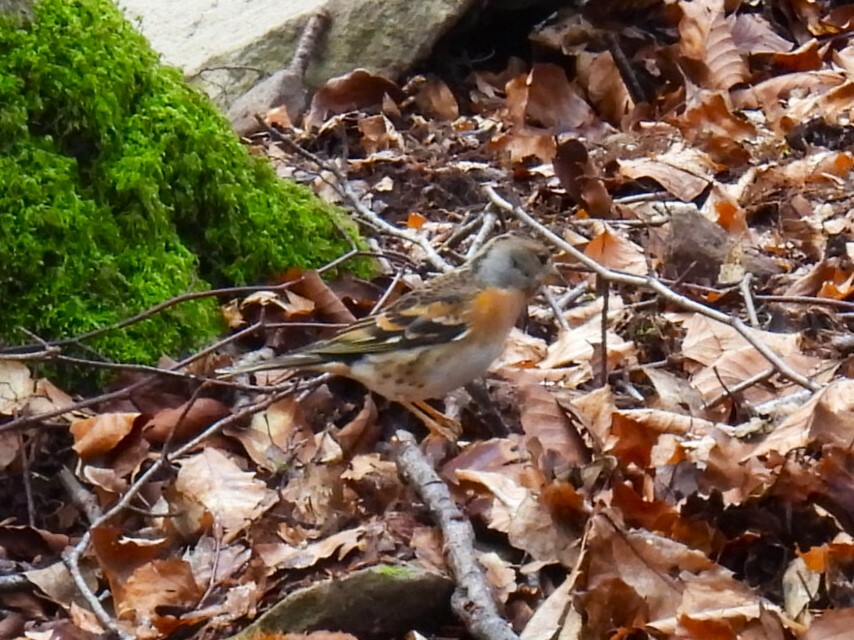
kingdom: Animalia
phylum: Chordata
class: Aves
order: Passeriformes
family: Fringillidae
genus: Fringilla
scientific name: Fringilla montifringilla
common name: Brambling
